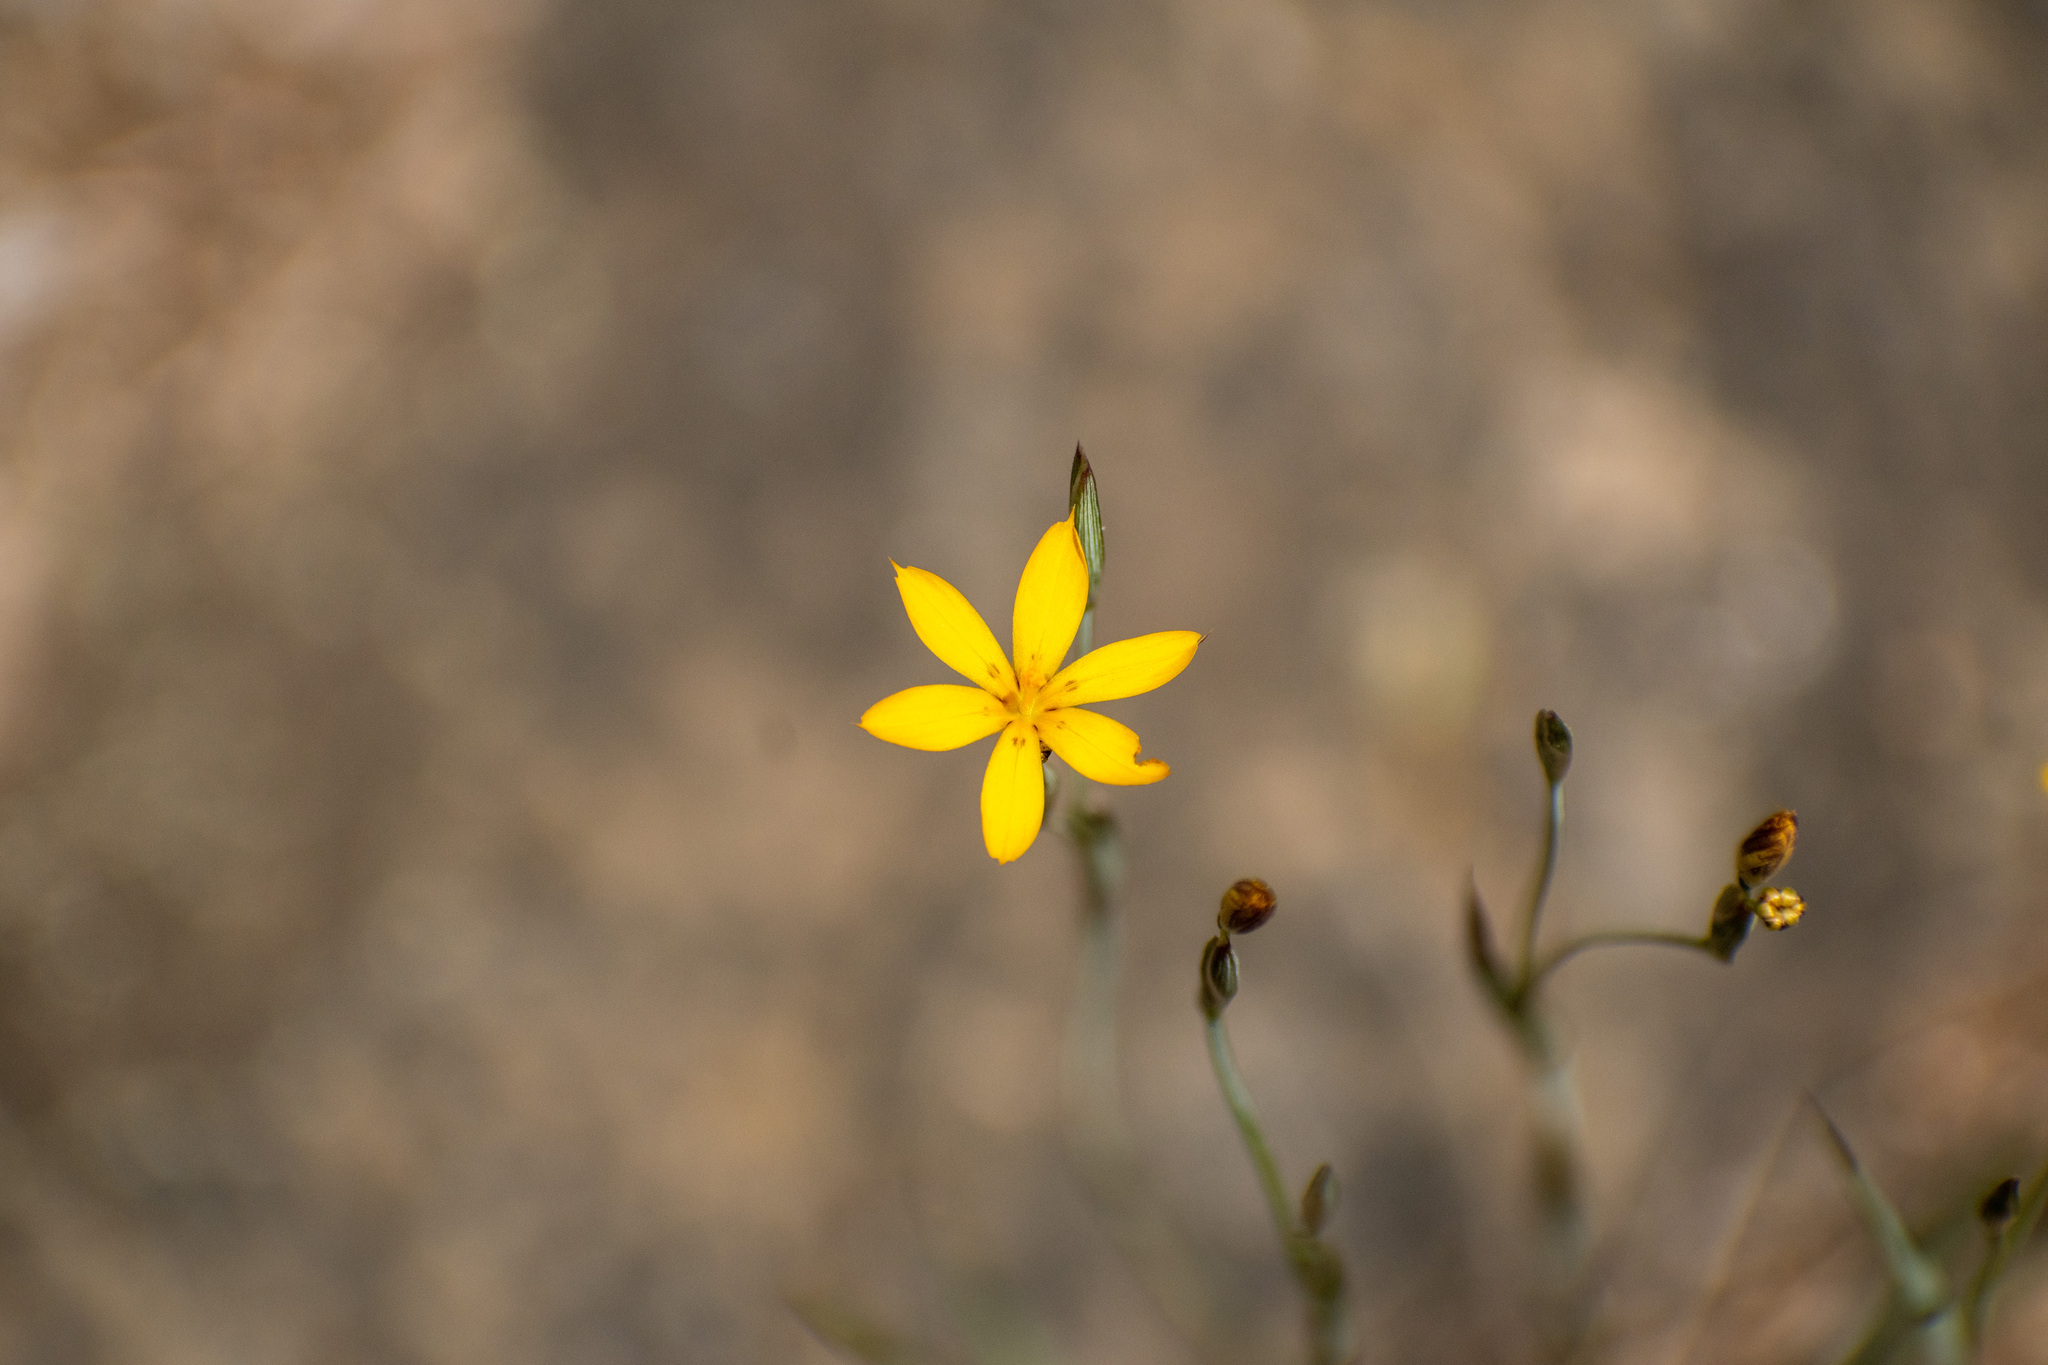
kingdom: Plantae
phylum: Tracheophyta
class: Liliopsida
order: Asparagales
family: Iridaceae
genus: Sisyrinchium
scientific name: Sisyrinchium patagonicum
